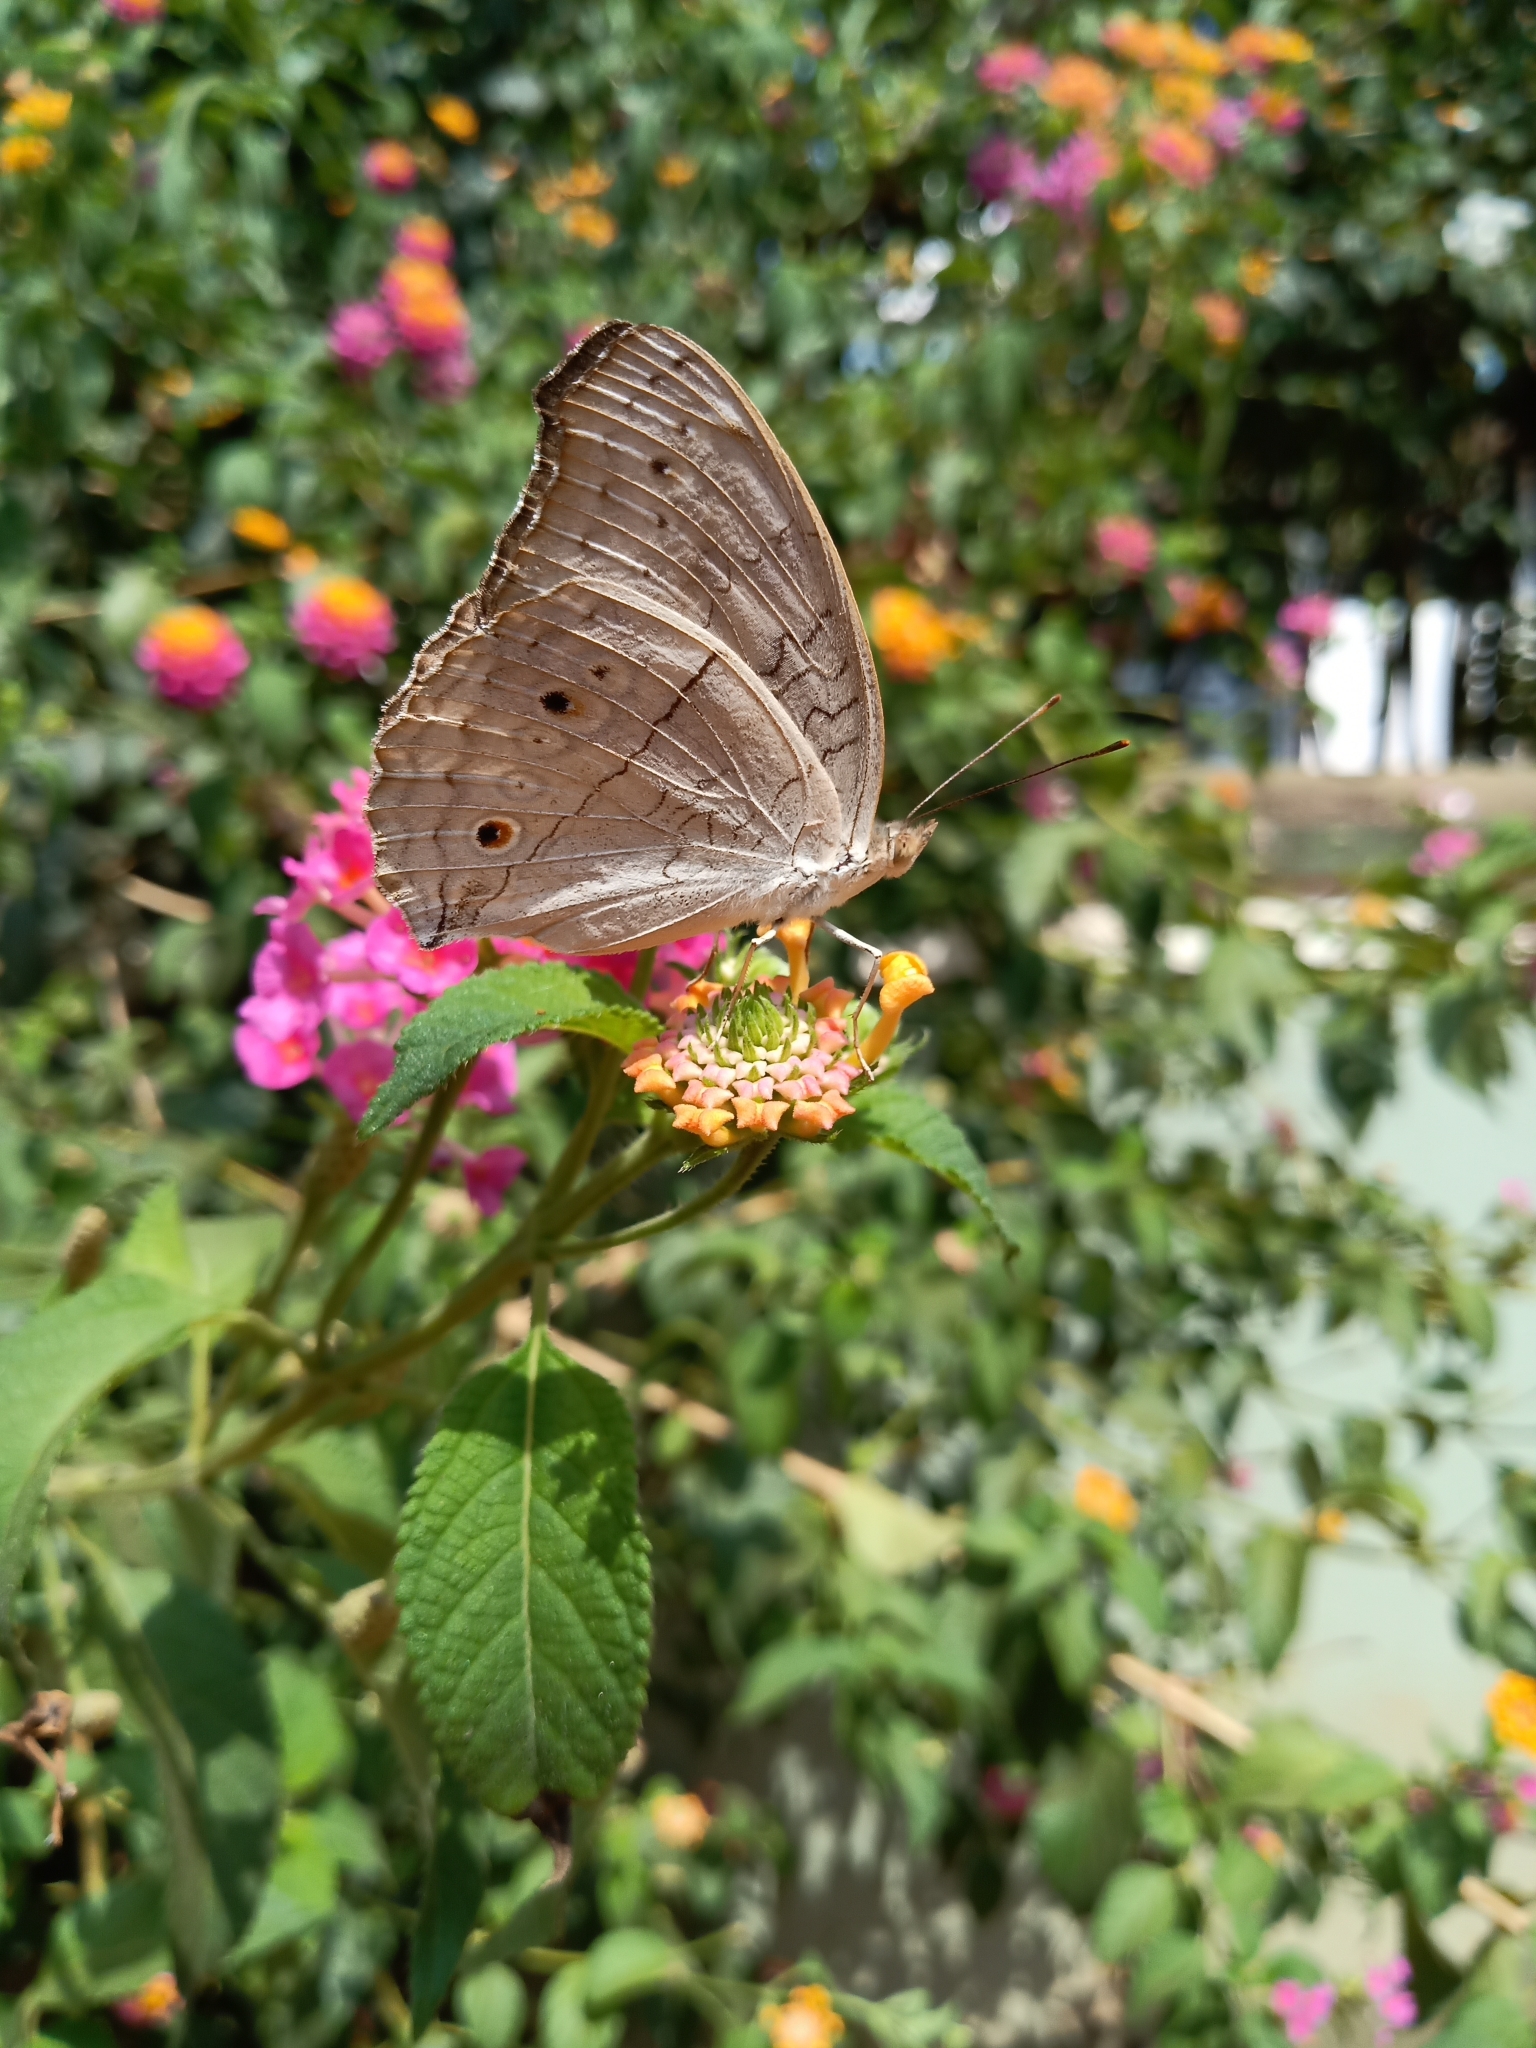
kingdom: Animalia
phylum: Arthropoda
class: Insecta
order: Lepidoptera
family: Nymphalidae
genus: Junonia
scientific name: Junonia atlites
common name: Grey pansy
